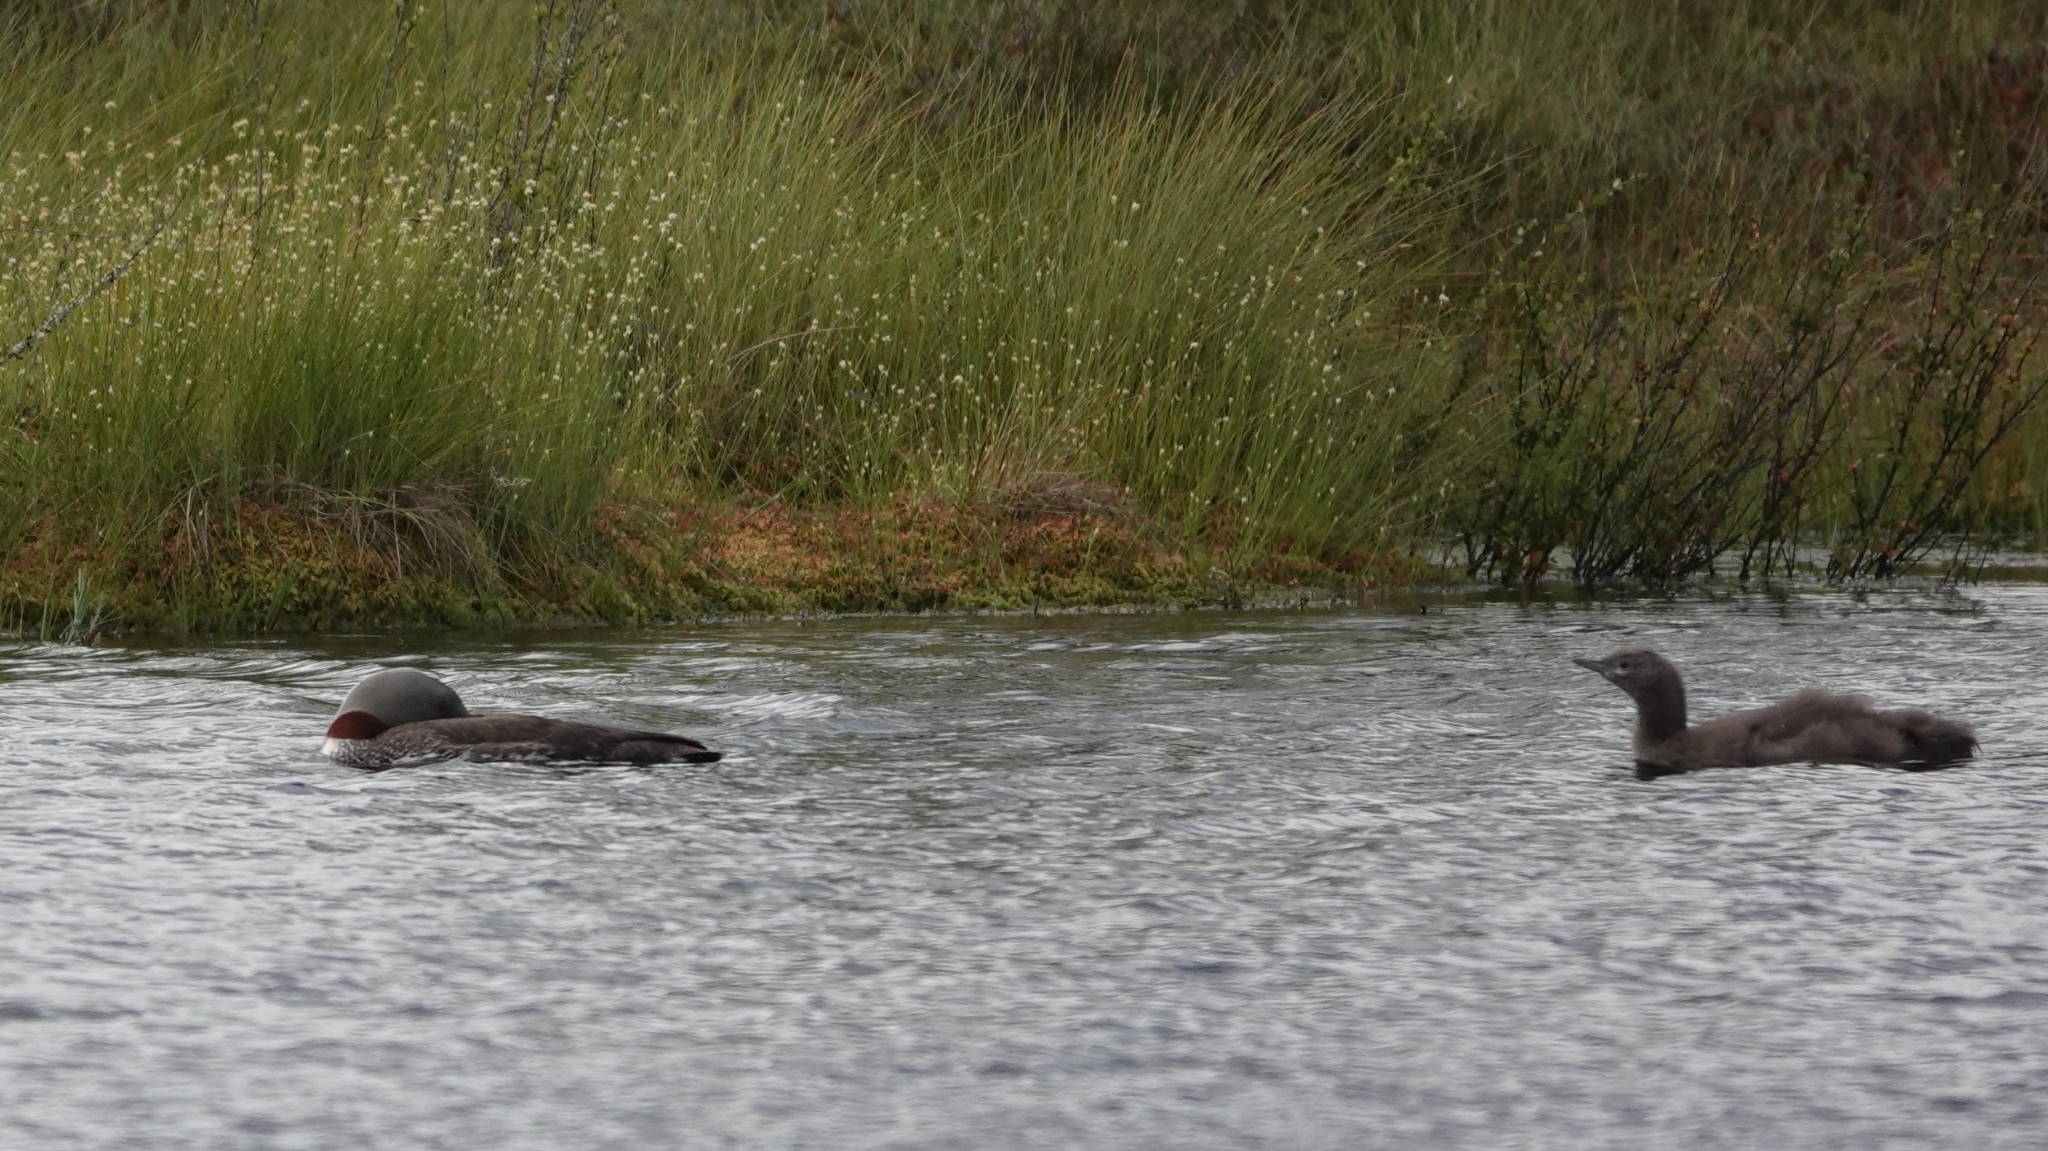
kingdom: Animalia
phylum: Chordata
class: Aves
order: Gaviiformes
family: Gaviidae
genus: Gavia
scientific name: Gavia stellata
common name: Red-throated loon
